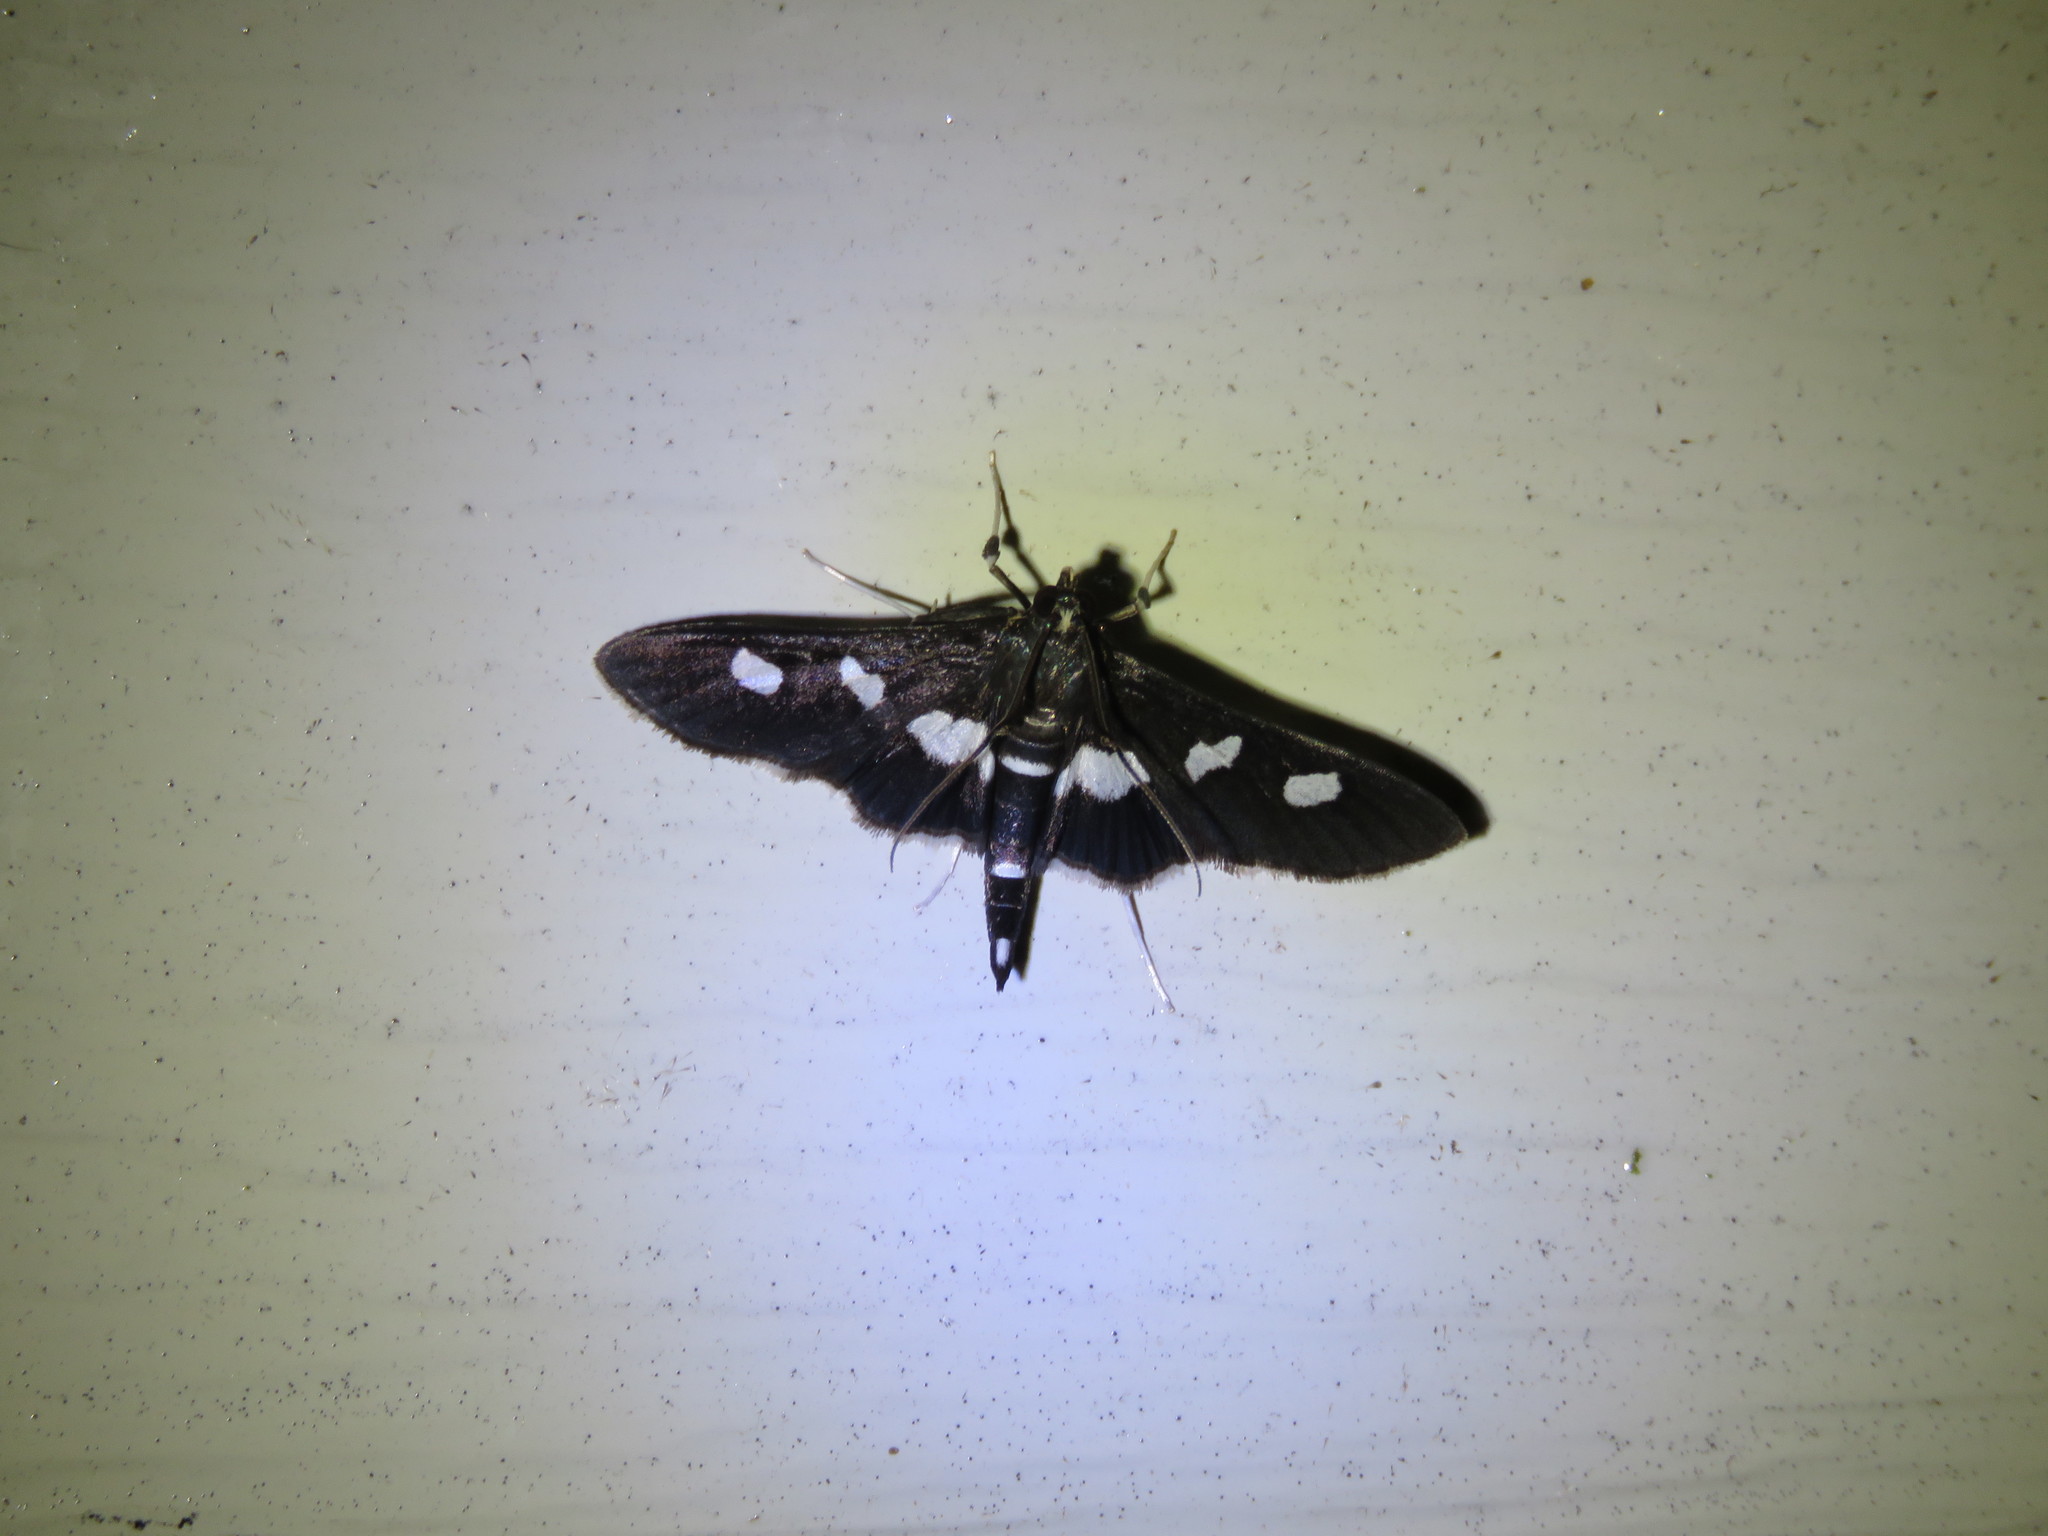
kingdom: Animalia
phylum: Arthropoda
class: Insecta
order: Lepidoptera
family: Crambidae
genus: Desmia
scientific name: Desmia
